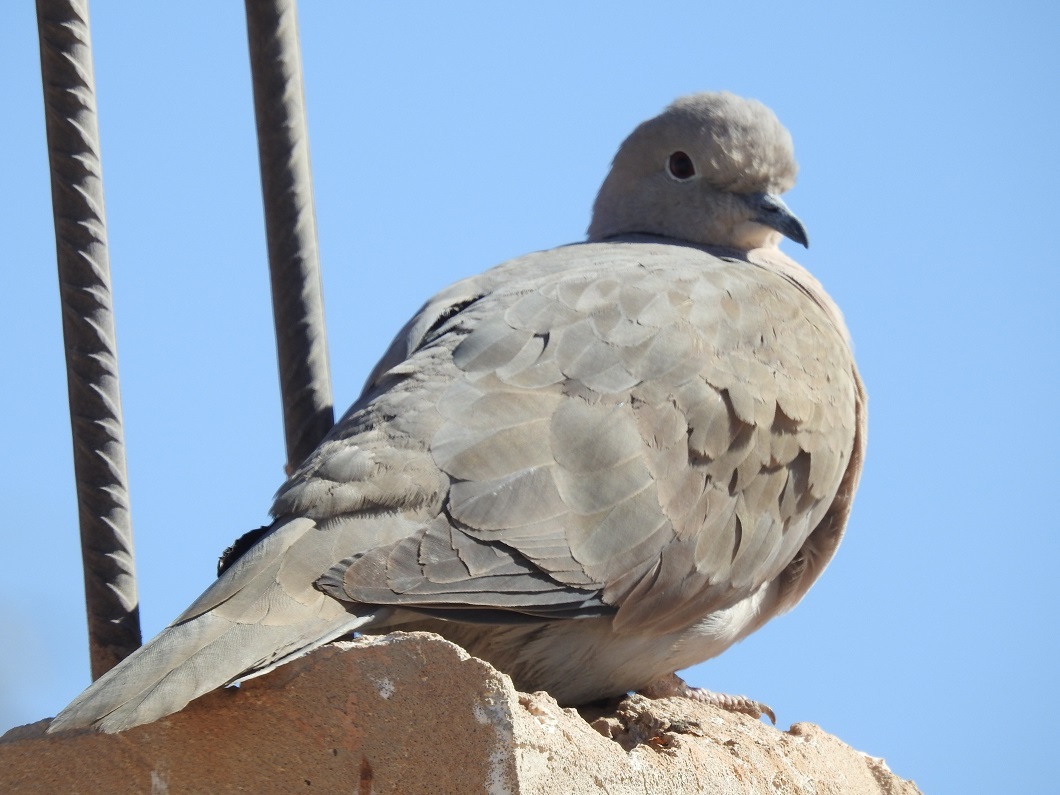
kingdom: Animalia
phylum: Chordata
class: Aves
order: Columbiformes
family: Columbidae
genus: Streptopelia
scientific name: Streptopelia decaocto
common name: Eurasian collared dove
